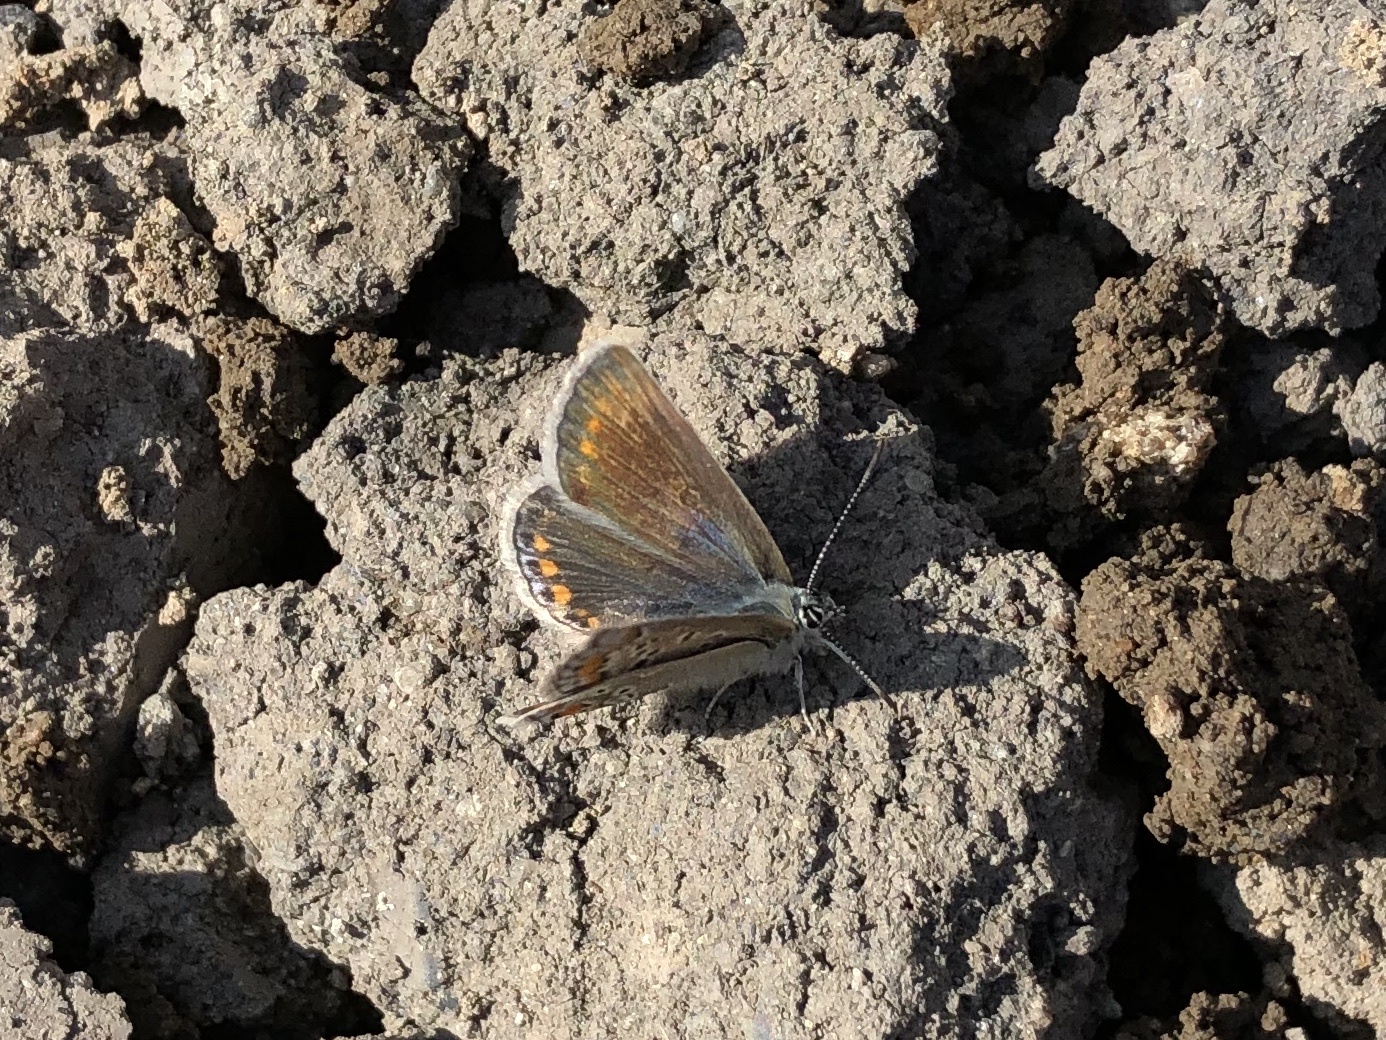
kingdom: Animalia
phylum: Arthropoda
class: Insecta
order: Lepidoptera
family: Lycaenidae
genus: Polyommatus
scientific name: Polyommatus icarus
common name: Common blue
